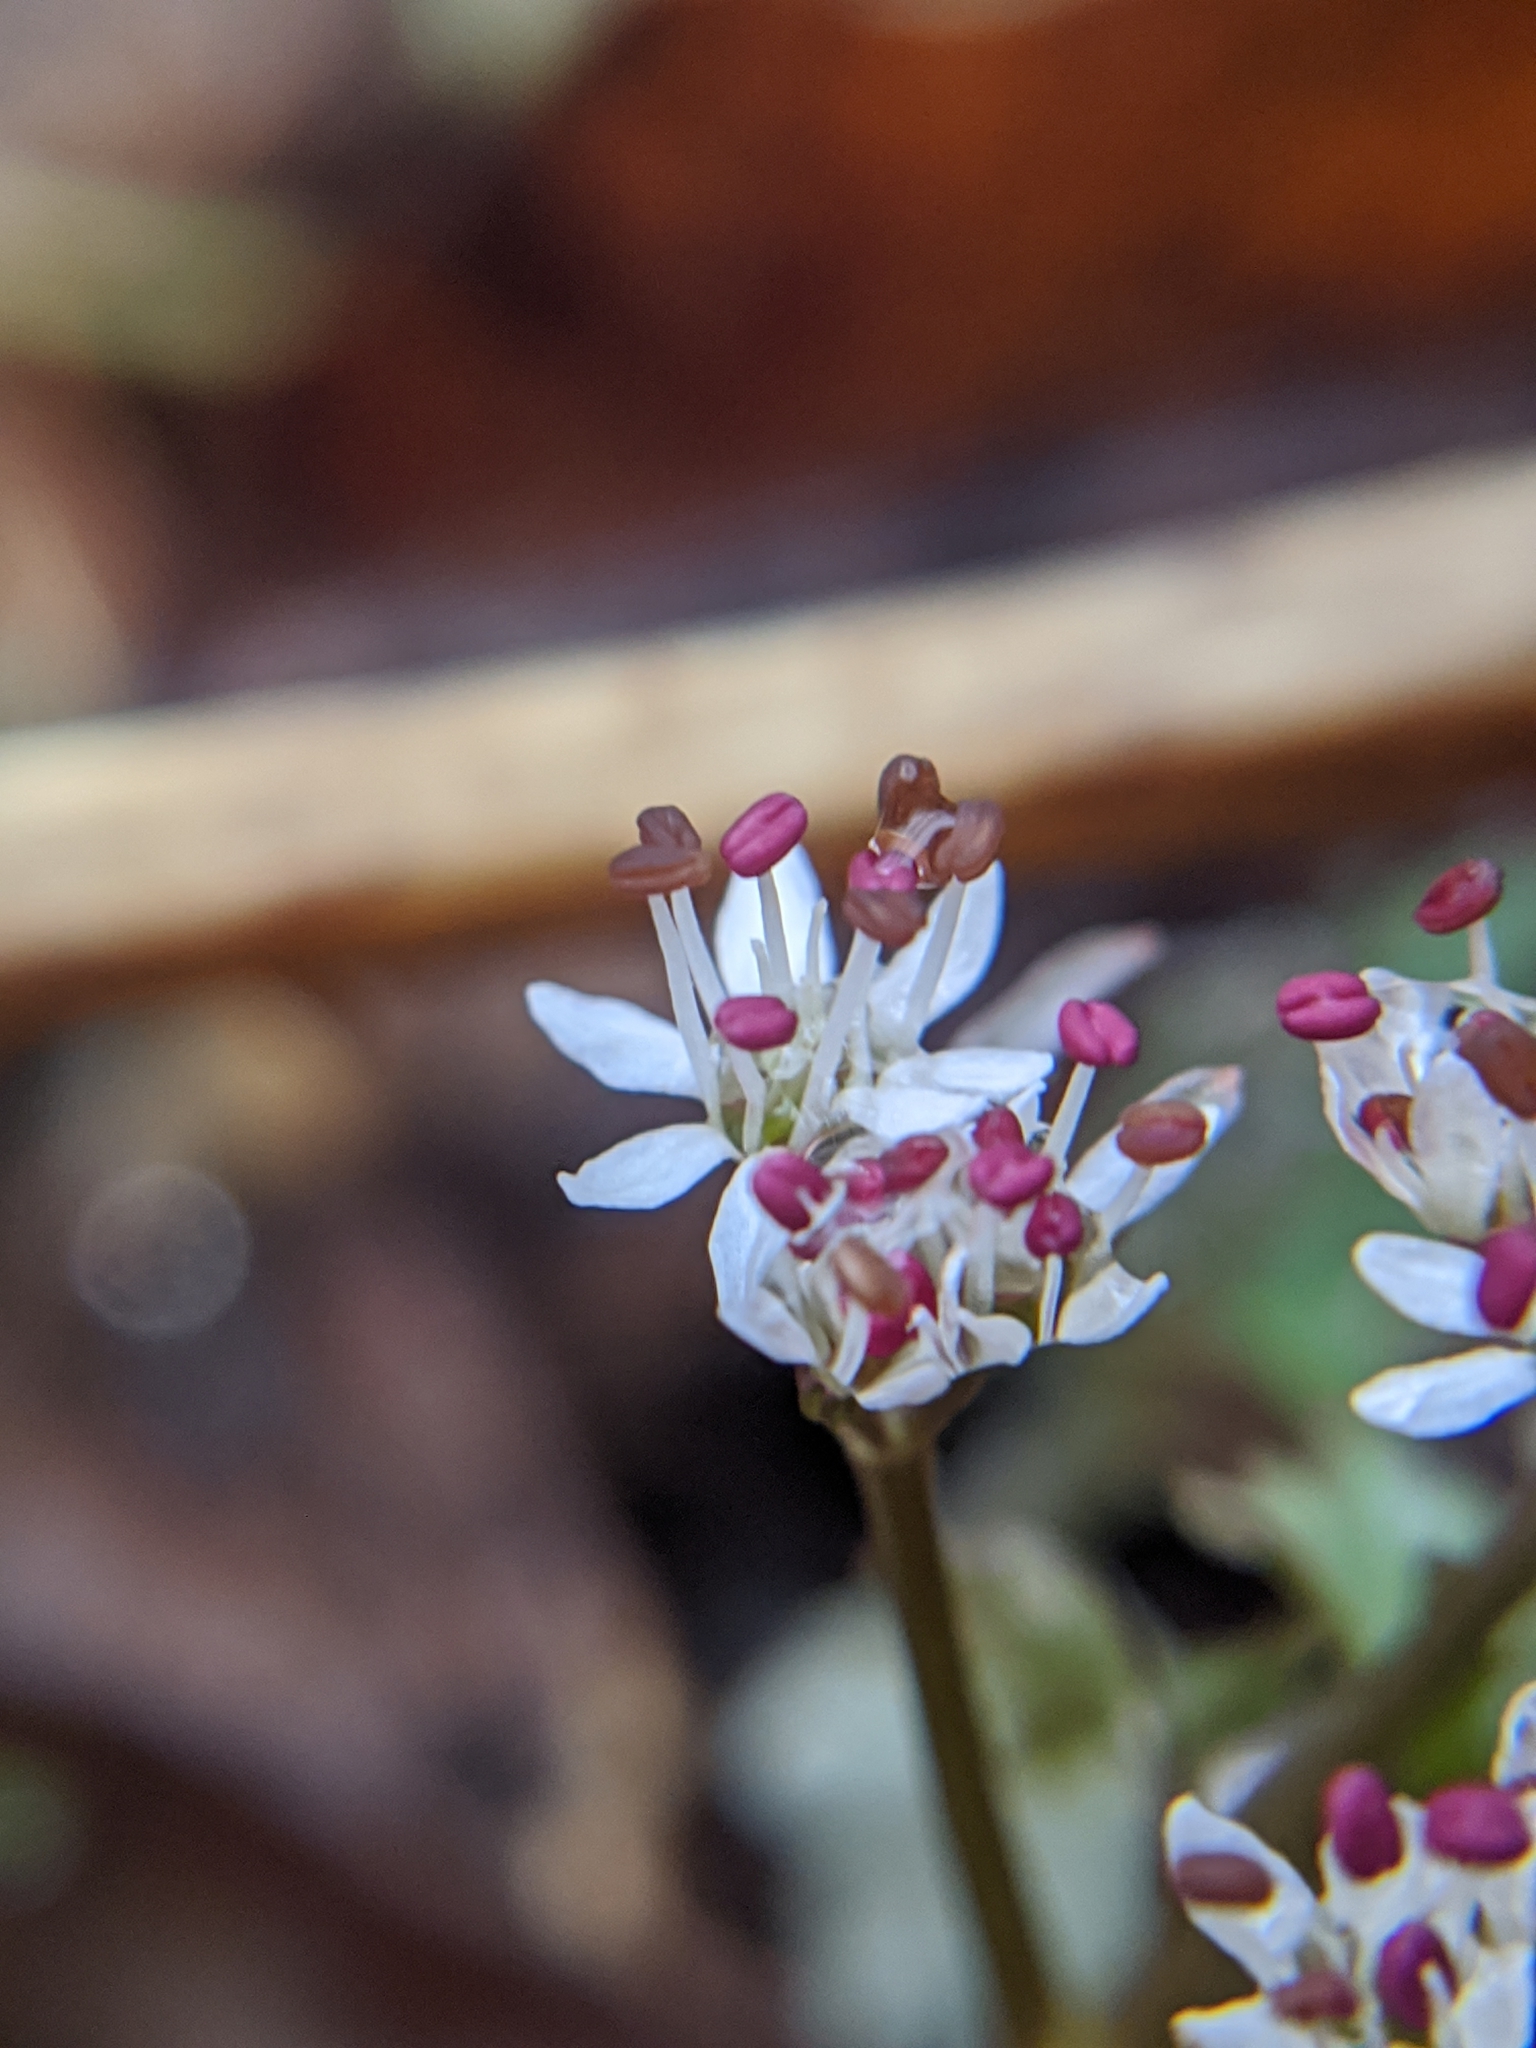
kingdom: Plantae
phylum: Tracheophyta
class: Magnoliopsida
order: Apiales
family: Apiaceae
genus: Erigenia
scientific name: Erigenia bulbosa
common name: Pepper-and-salt
